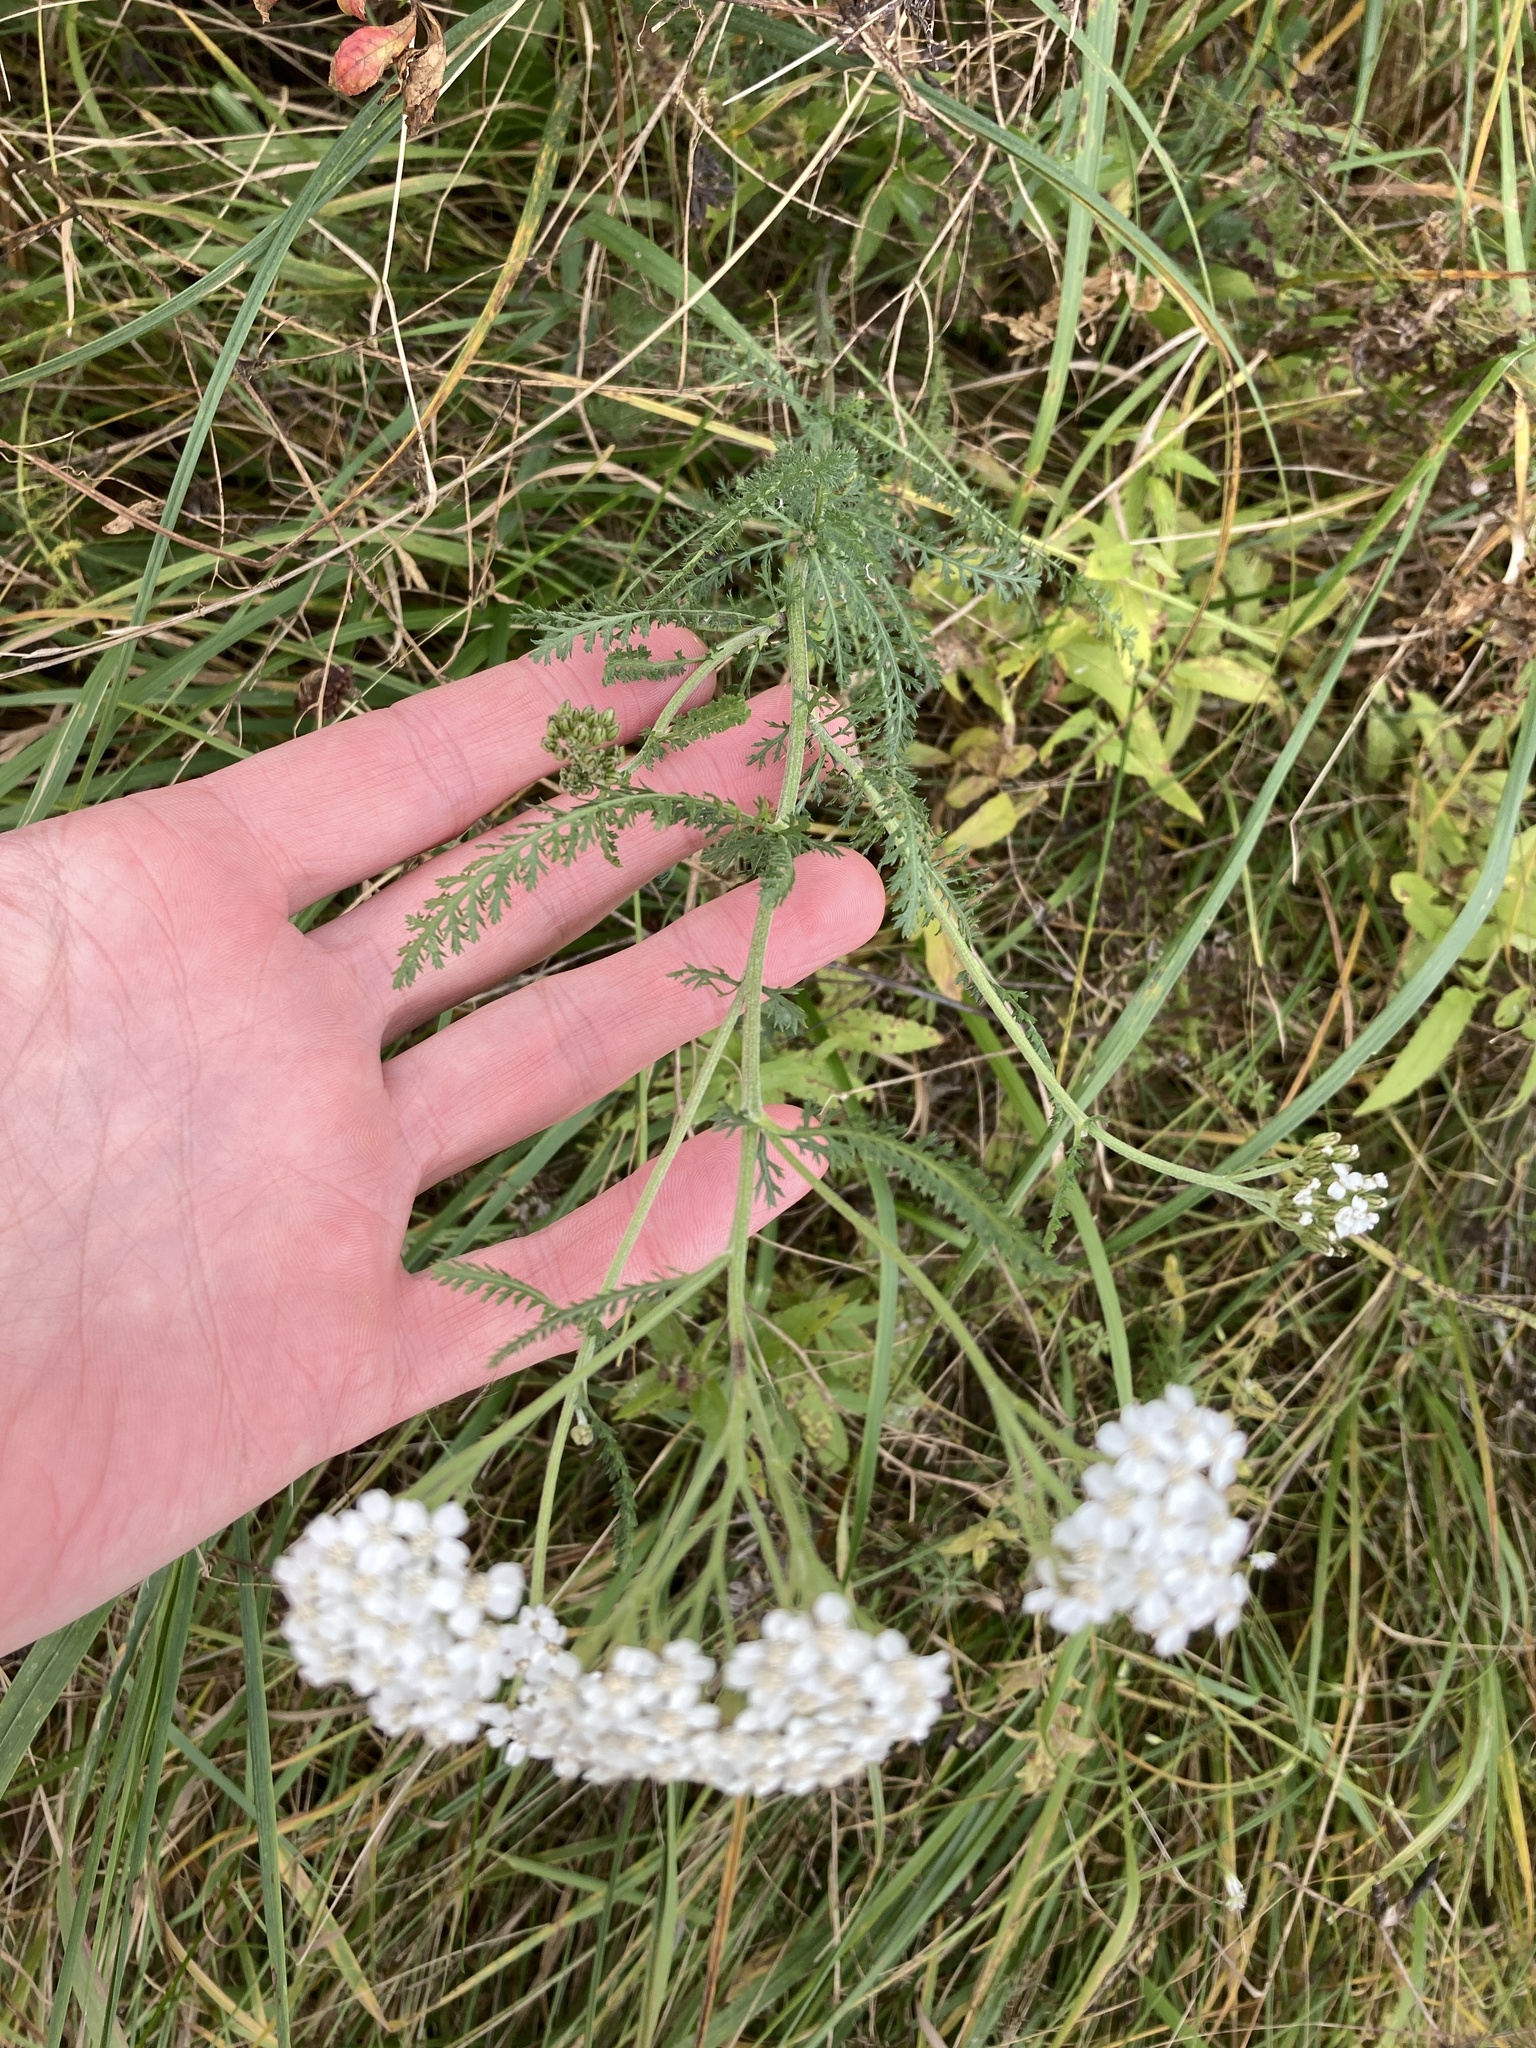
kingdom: Plantae
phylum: Tracheophyta
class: Magnoliopsida
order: Asterales
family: Asteraceae
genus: Achillea
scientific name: Achillea millefolium
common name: Yarrow
